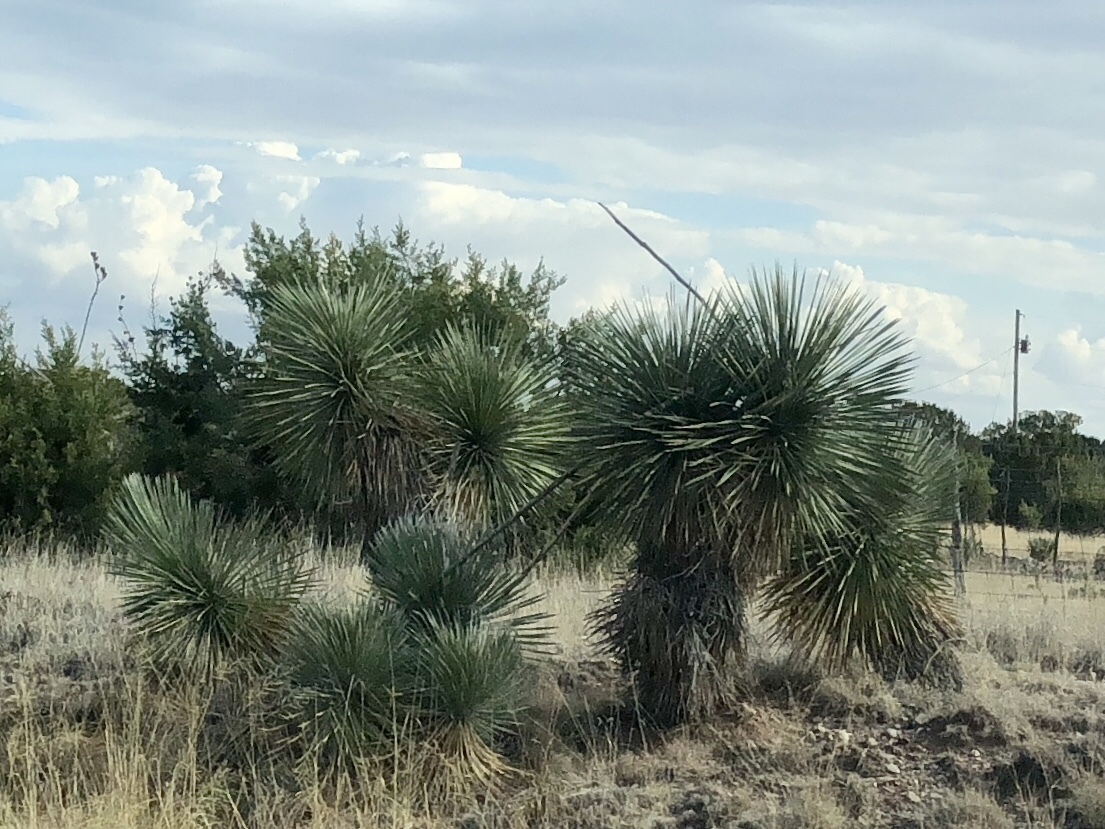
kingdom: Plantae
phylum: Tracheophyta
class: Liliopsida
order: Asparagales
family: Asparagaceae
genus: Yucca
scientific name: Yucca elata
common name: Palmella
